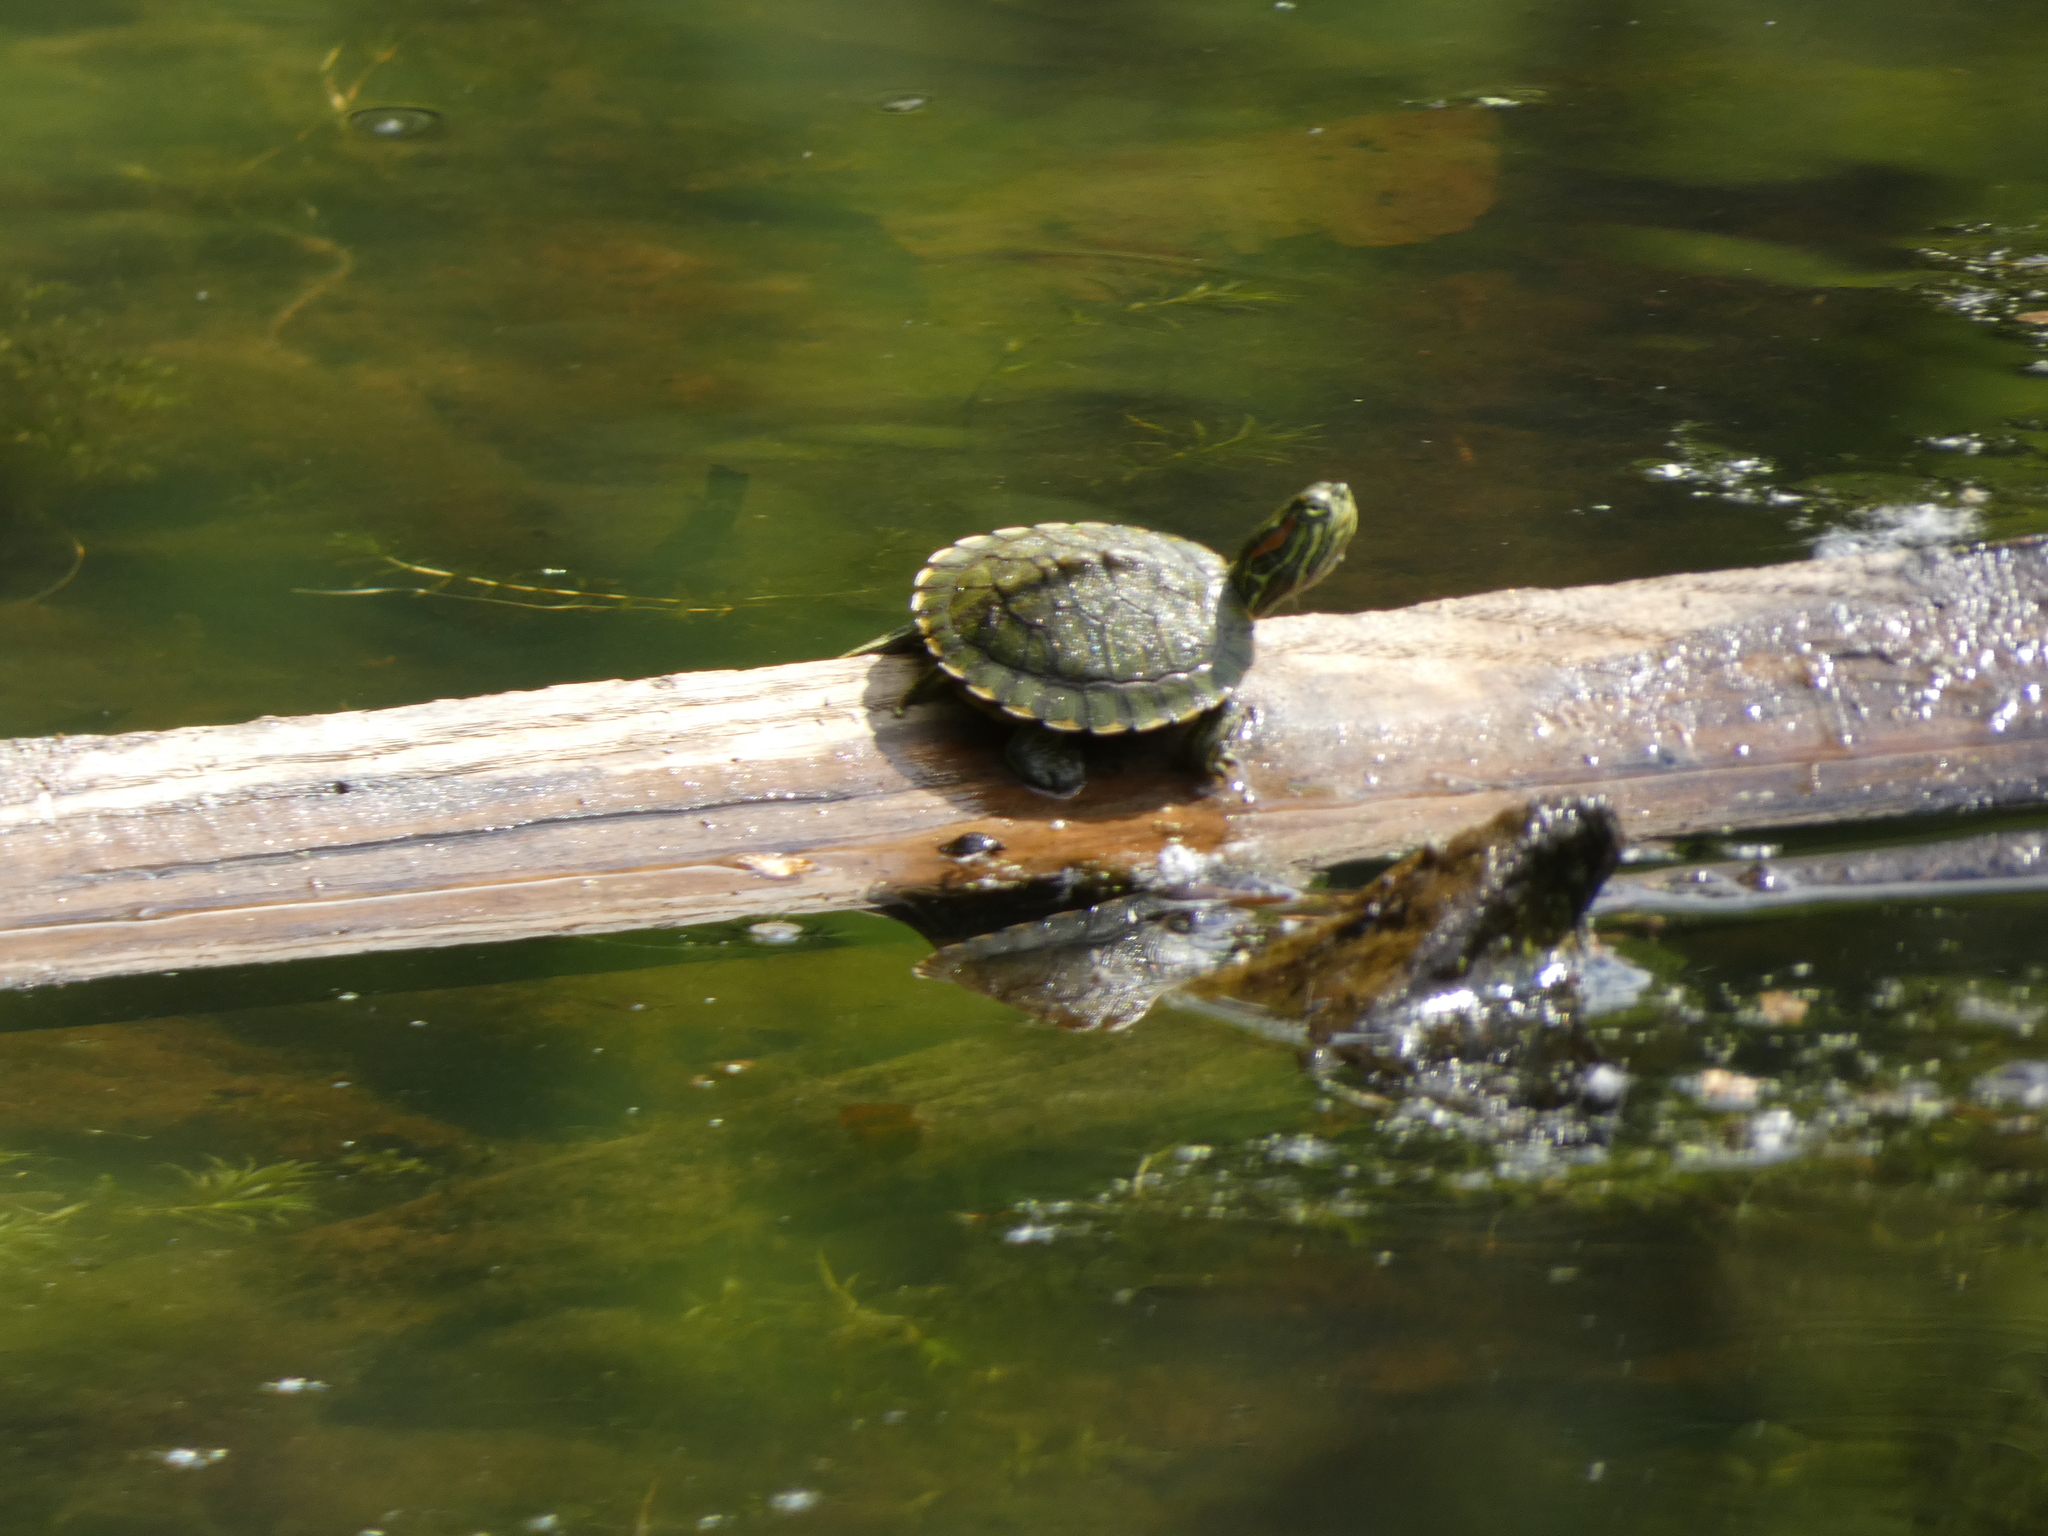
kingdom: Animalia
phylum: Chordata
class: Testudines
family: Emydidae
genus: Trachemys
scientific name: Trachemys scripta
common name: Slider
